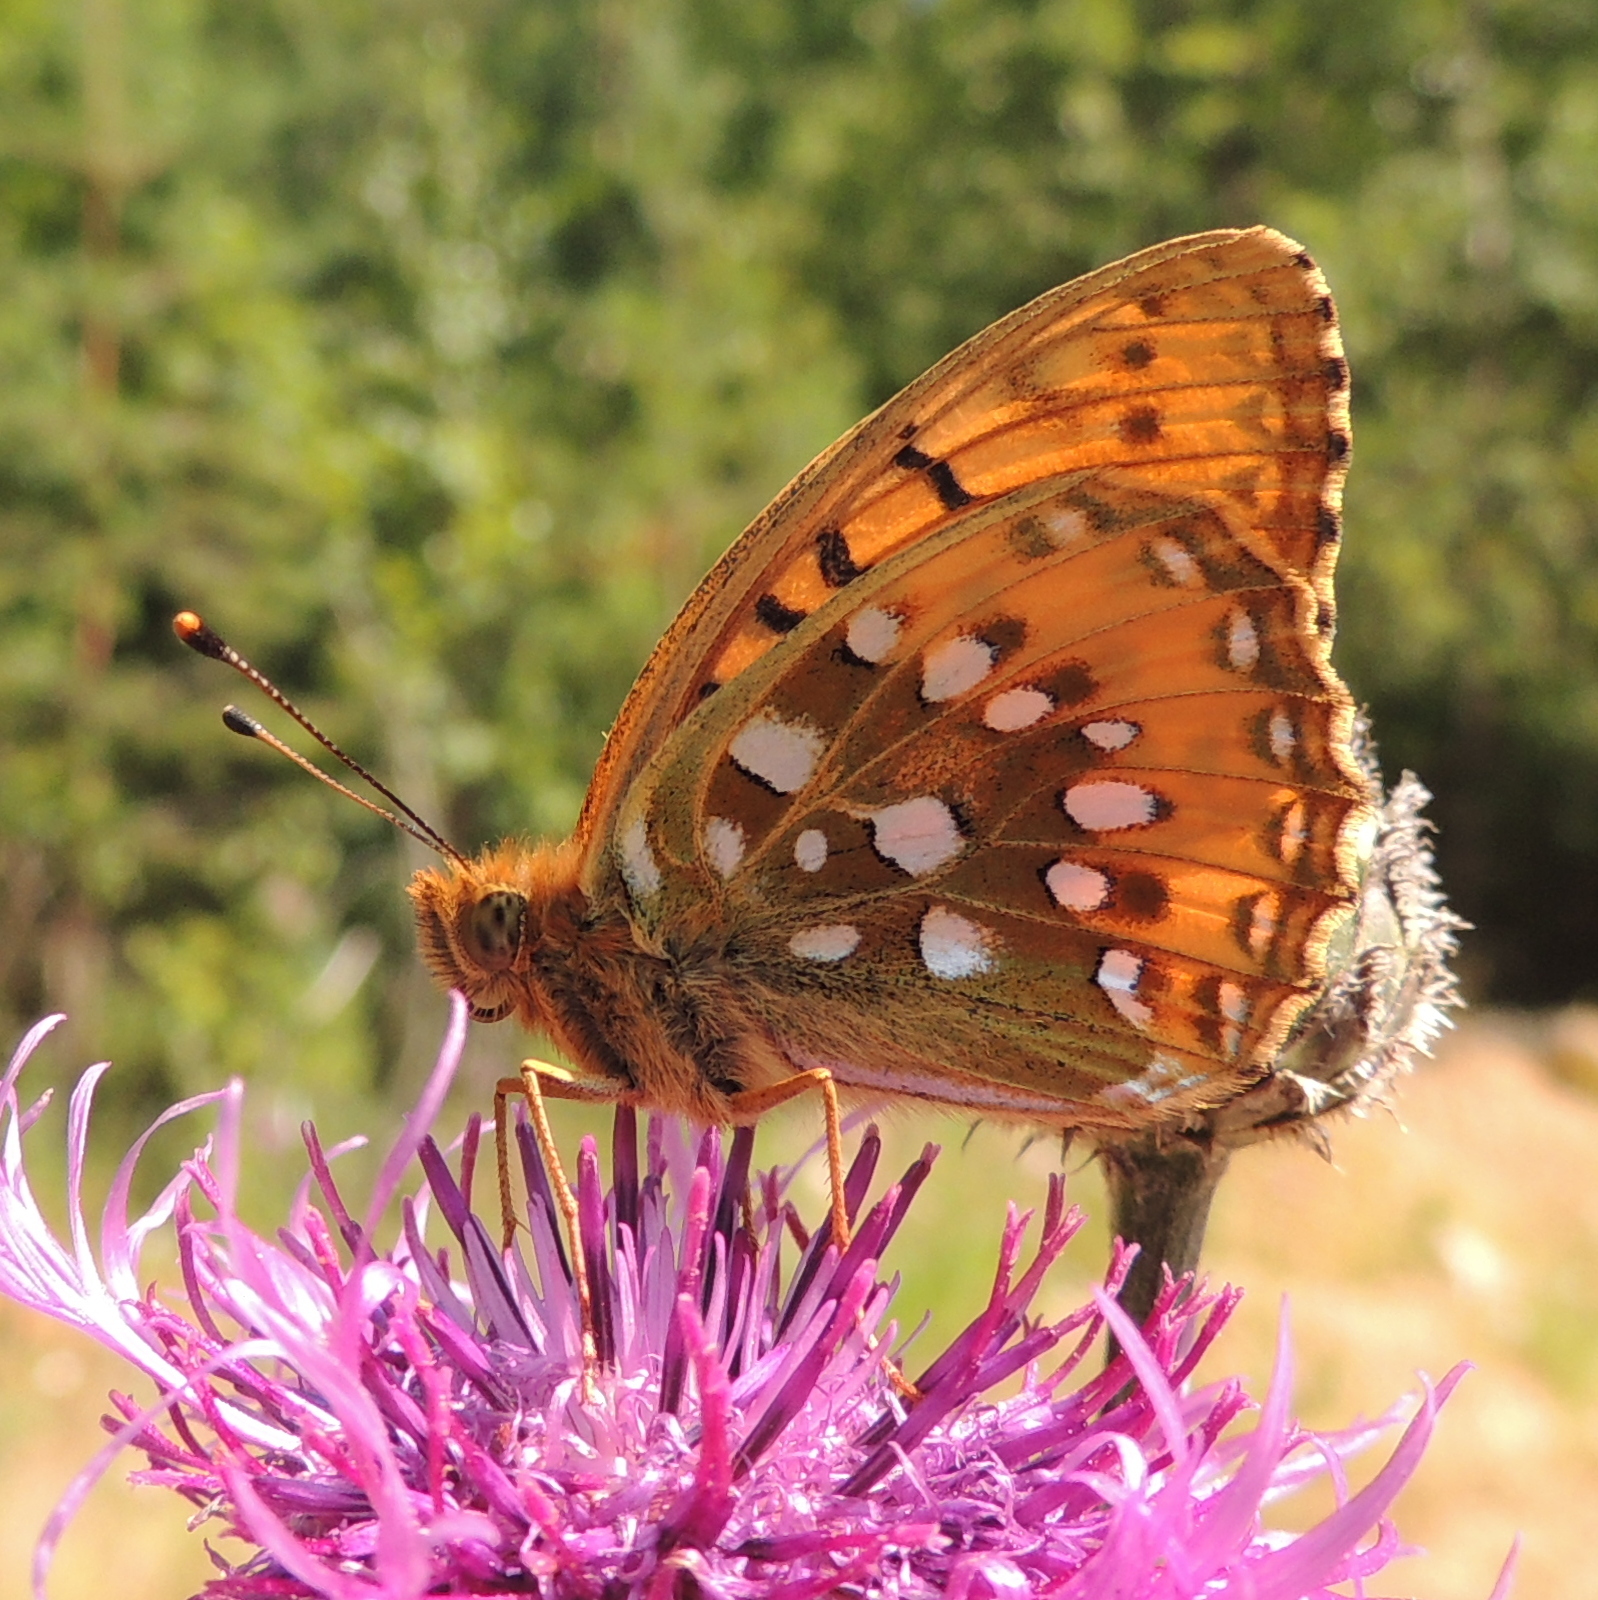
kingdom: Animalia
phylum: Arthropoda
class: Insecta
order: Lepidoptera
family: Nymphalidae
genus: Speyeria
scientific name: Speyeria aglaja
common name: Dark green fritillary
